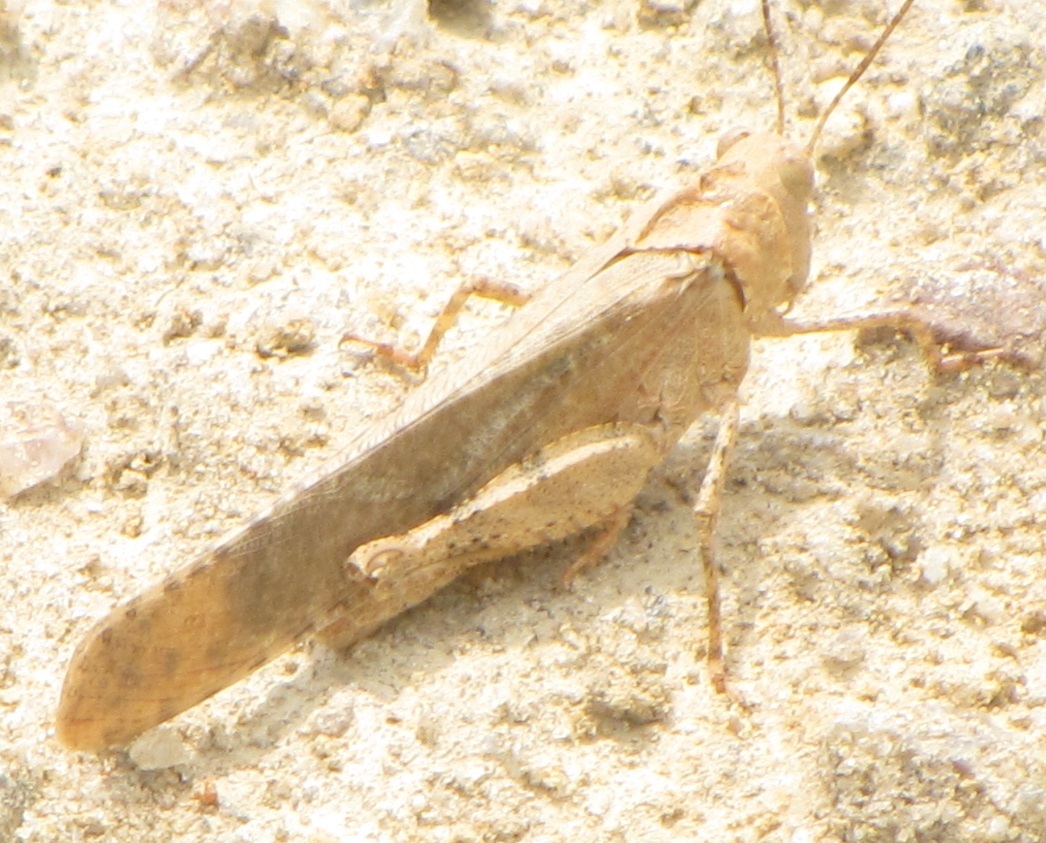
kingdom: Animalia
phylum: Arthropoda
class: Insecta
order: Orthoptera
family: Acrididae
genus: Dissosteira
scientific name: Dissosteira carolina
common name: Carolina grasshopper
